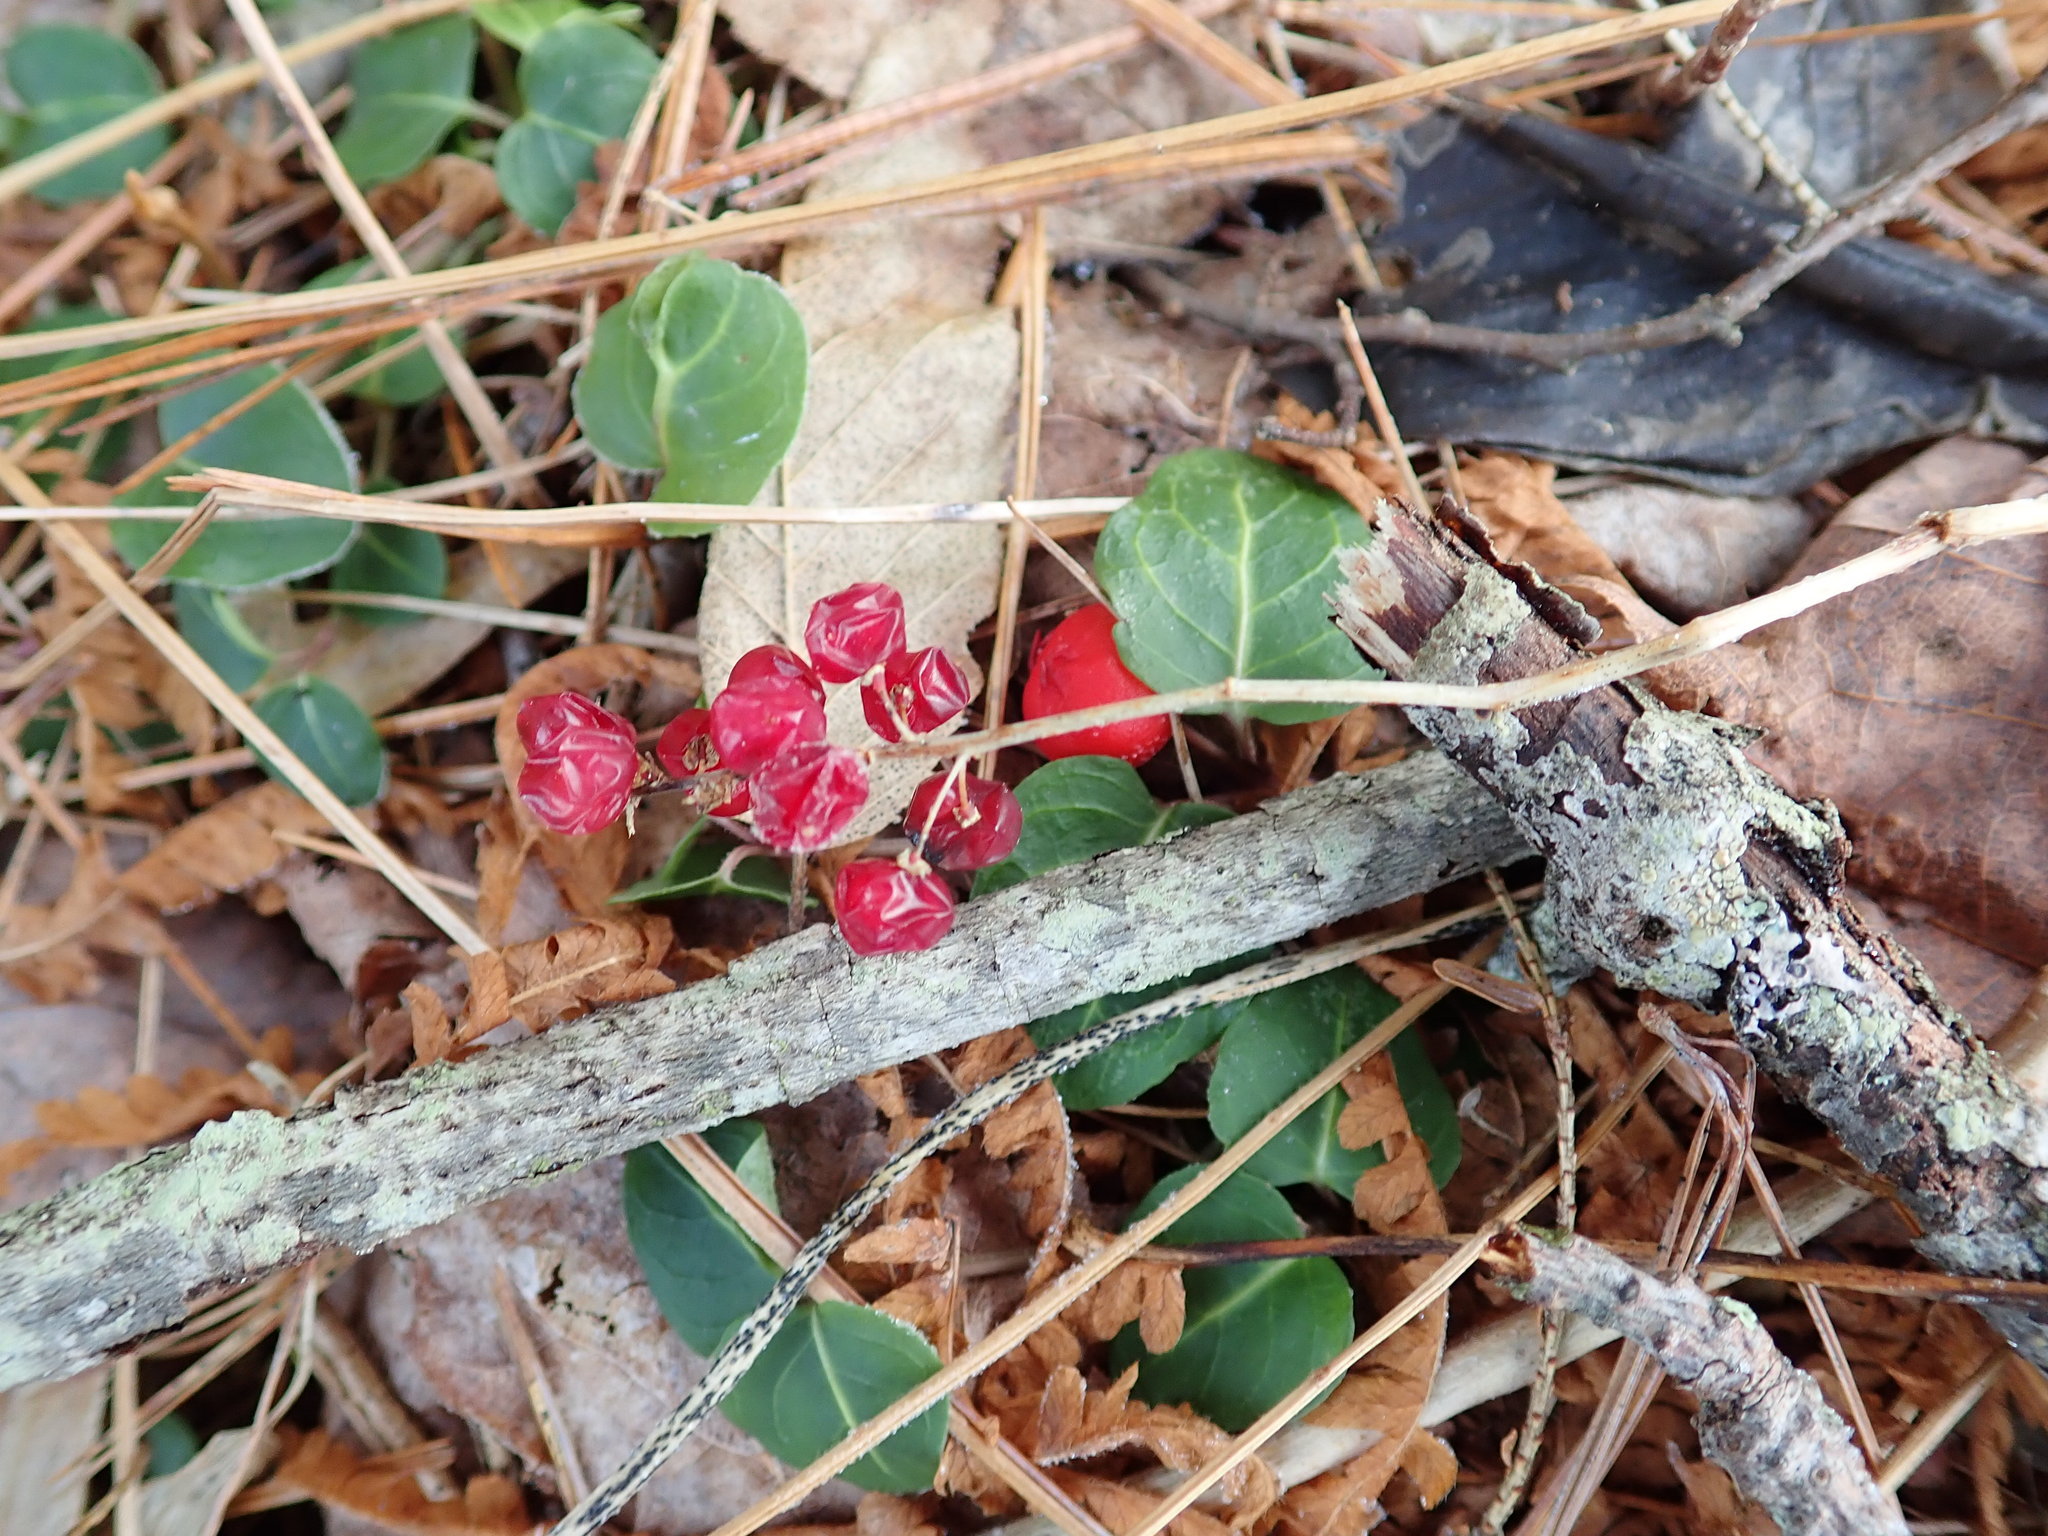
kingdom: Plantae
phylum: Tracheophyta
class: Liliopsida
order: Asparagales
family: Asparagaceae
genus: Maianthemum
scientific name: Maianthemum canadense
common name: False lily-of-the-valley
